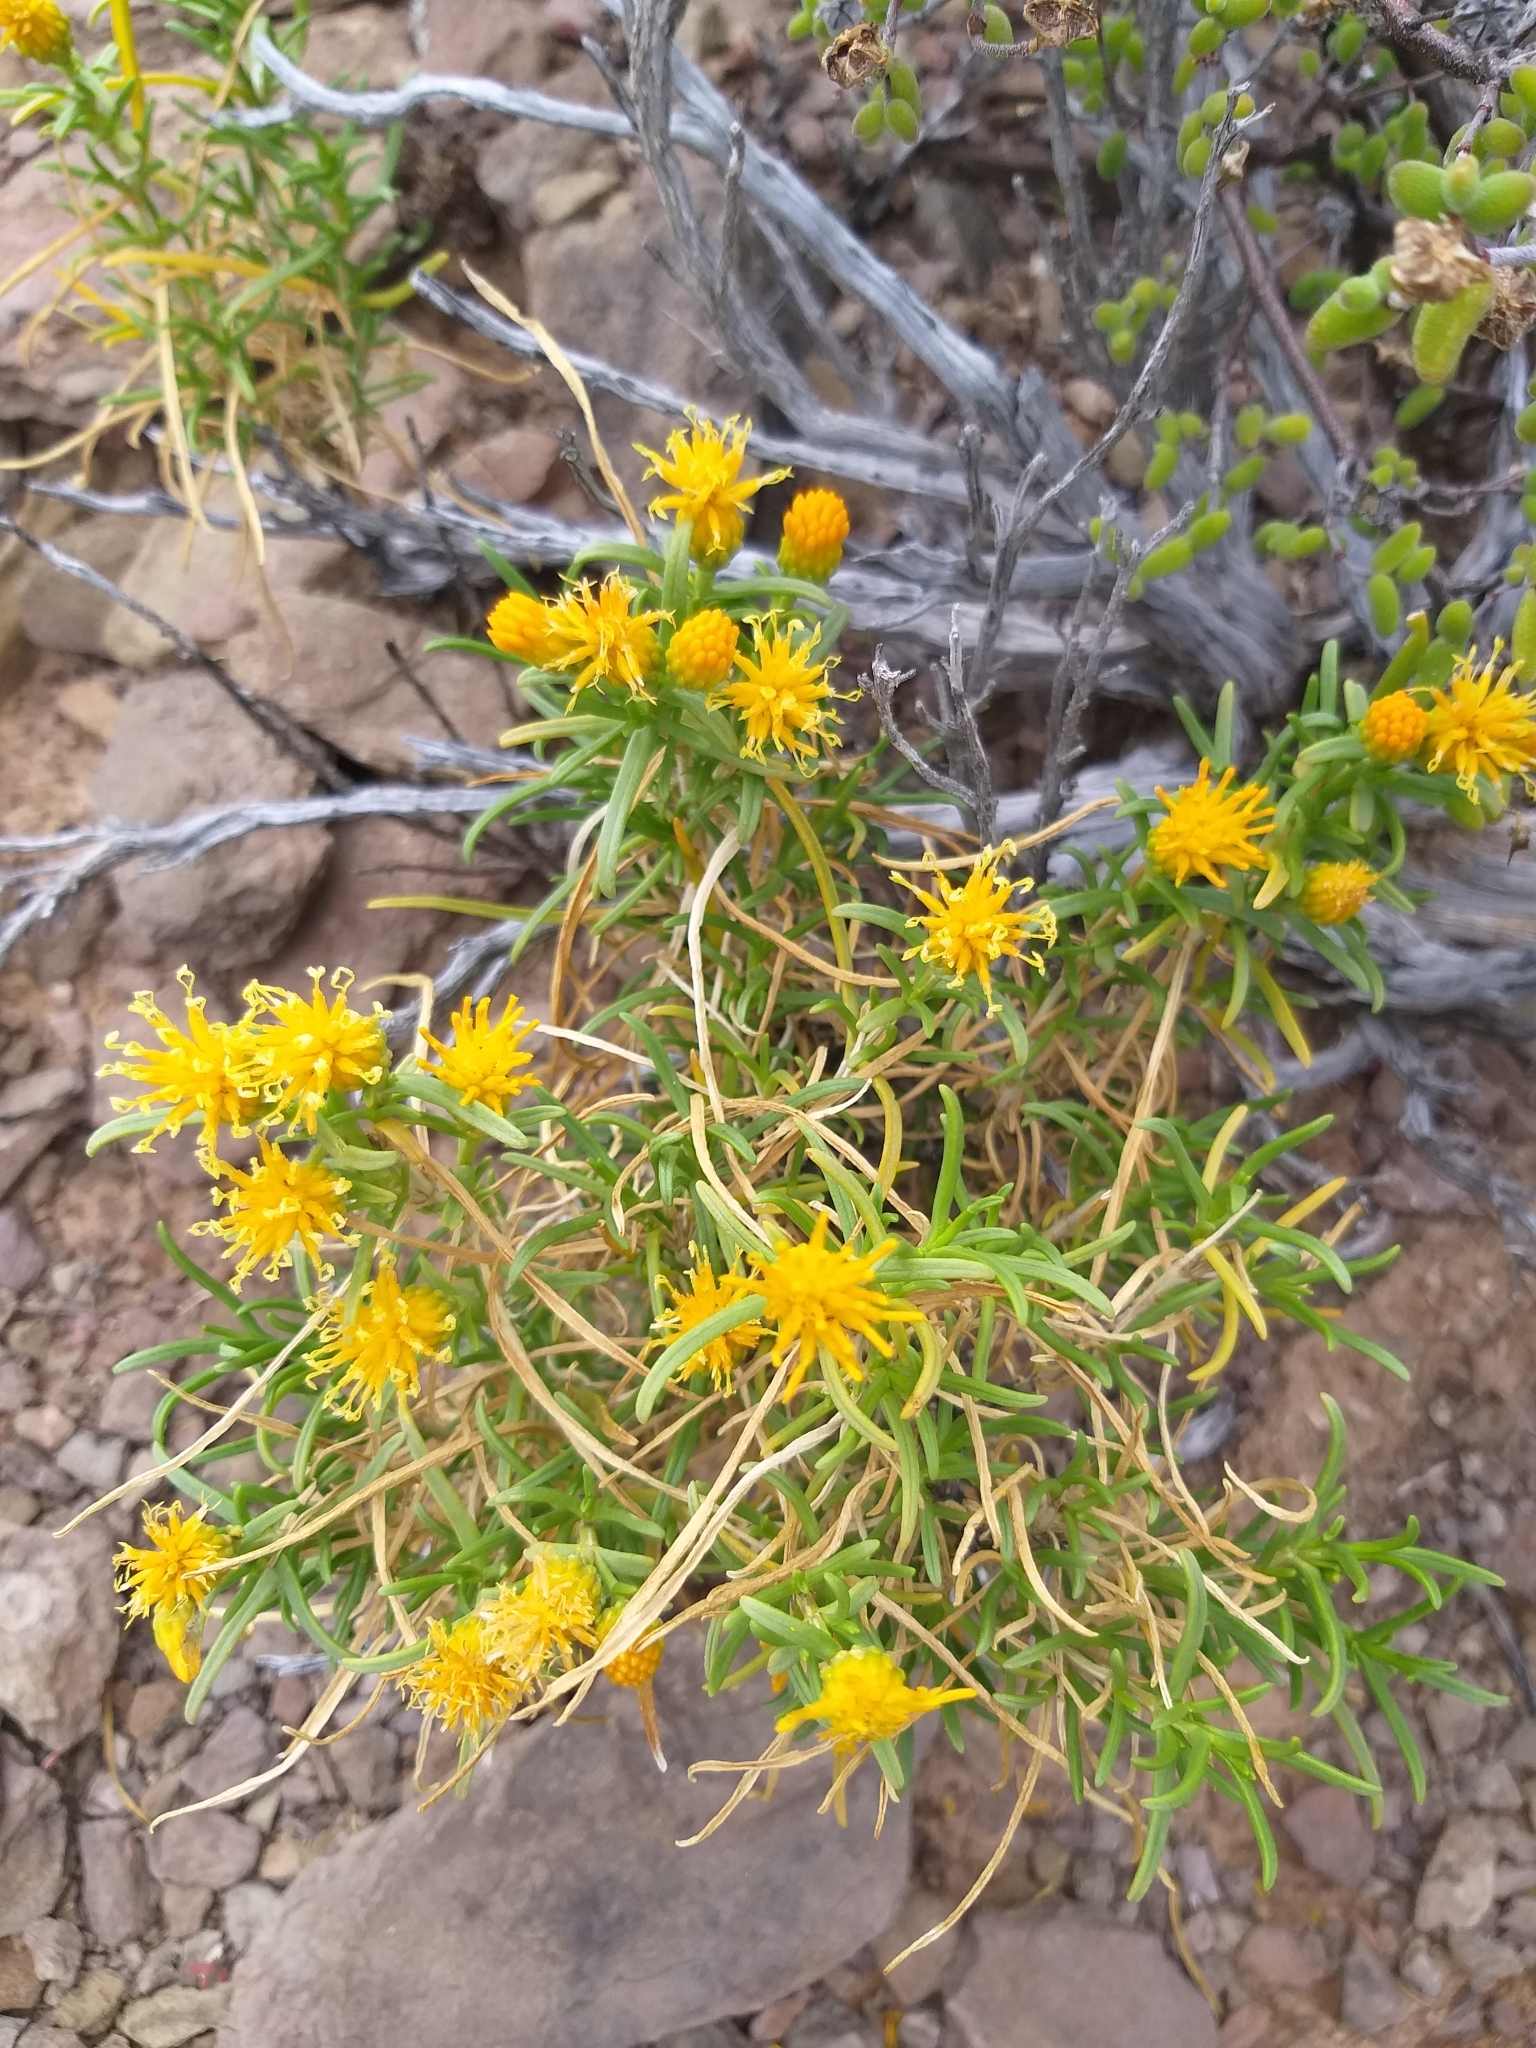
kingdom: Plantae
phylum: Tracheophyta
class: Magnoliopsida
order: Asterales
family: Asteraceae
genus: Pteronia
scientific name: Pteronia pallens
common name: Scholtzbush
